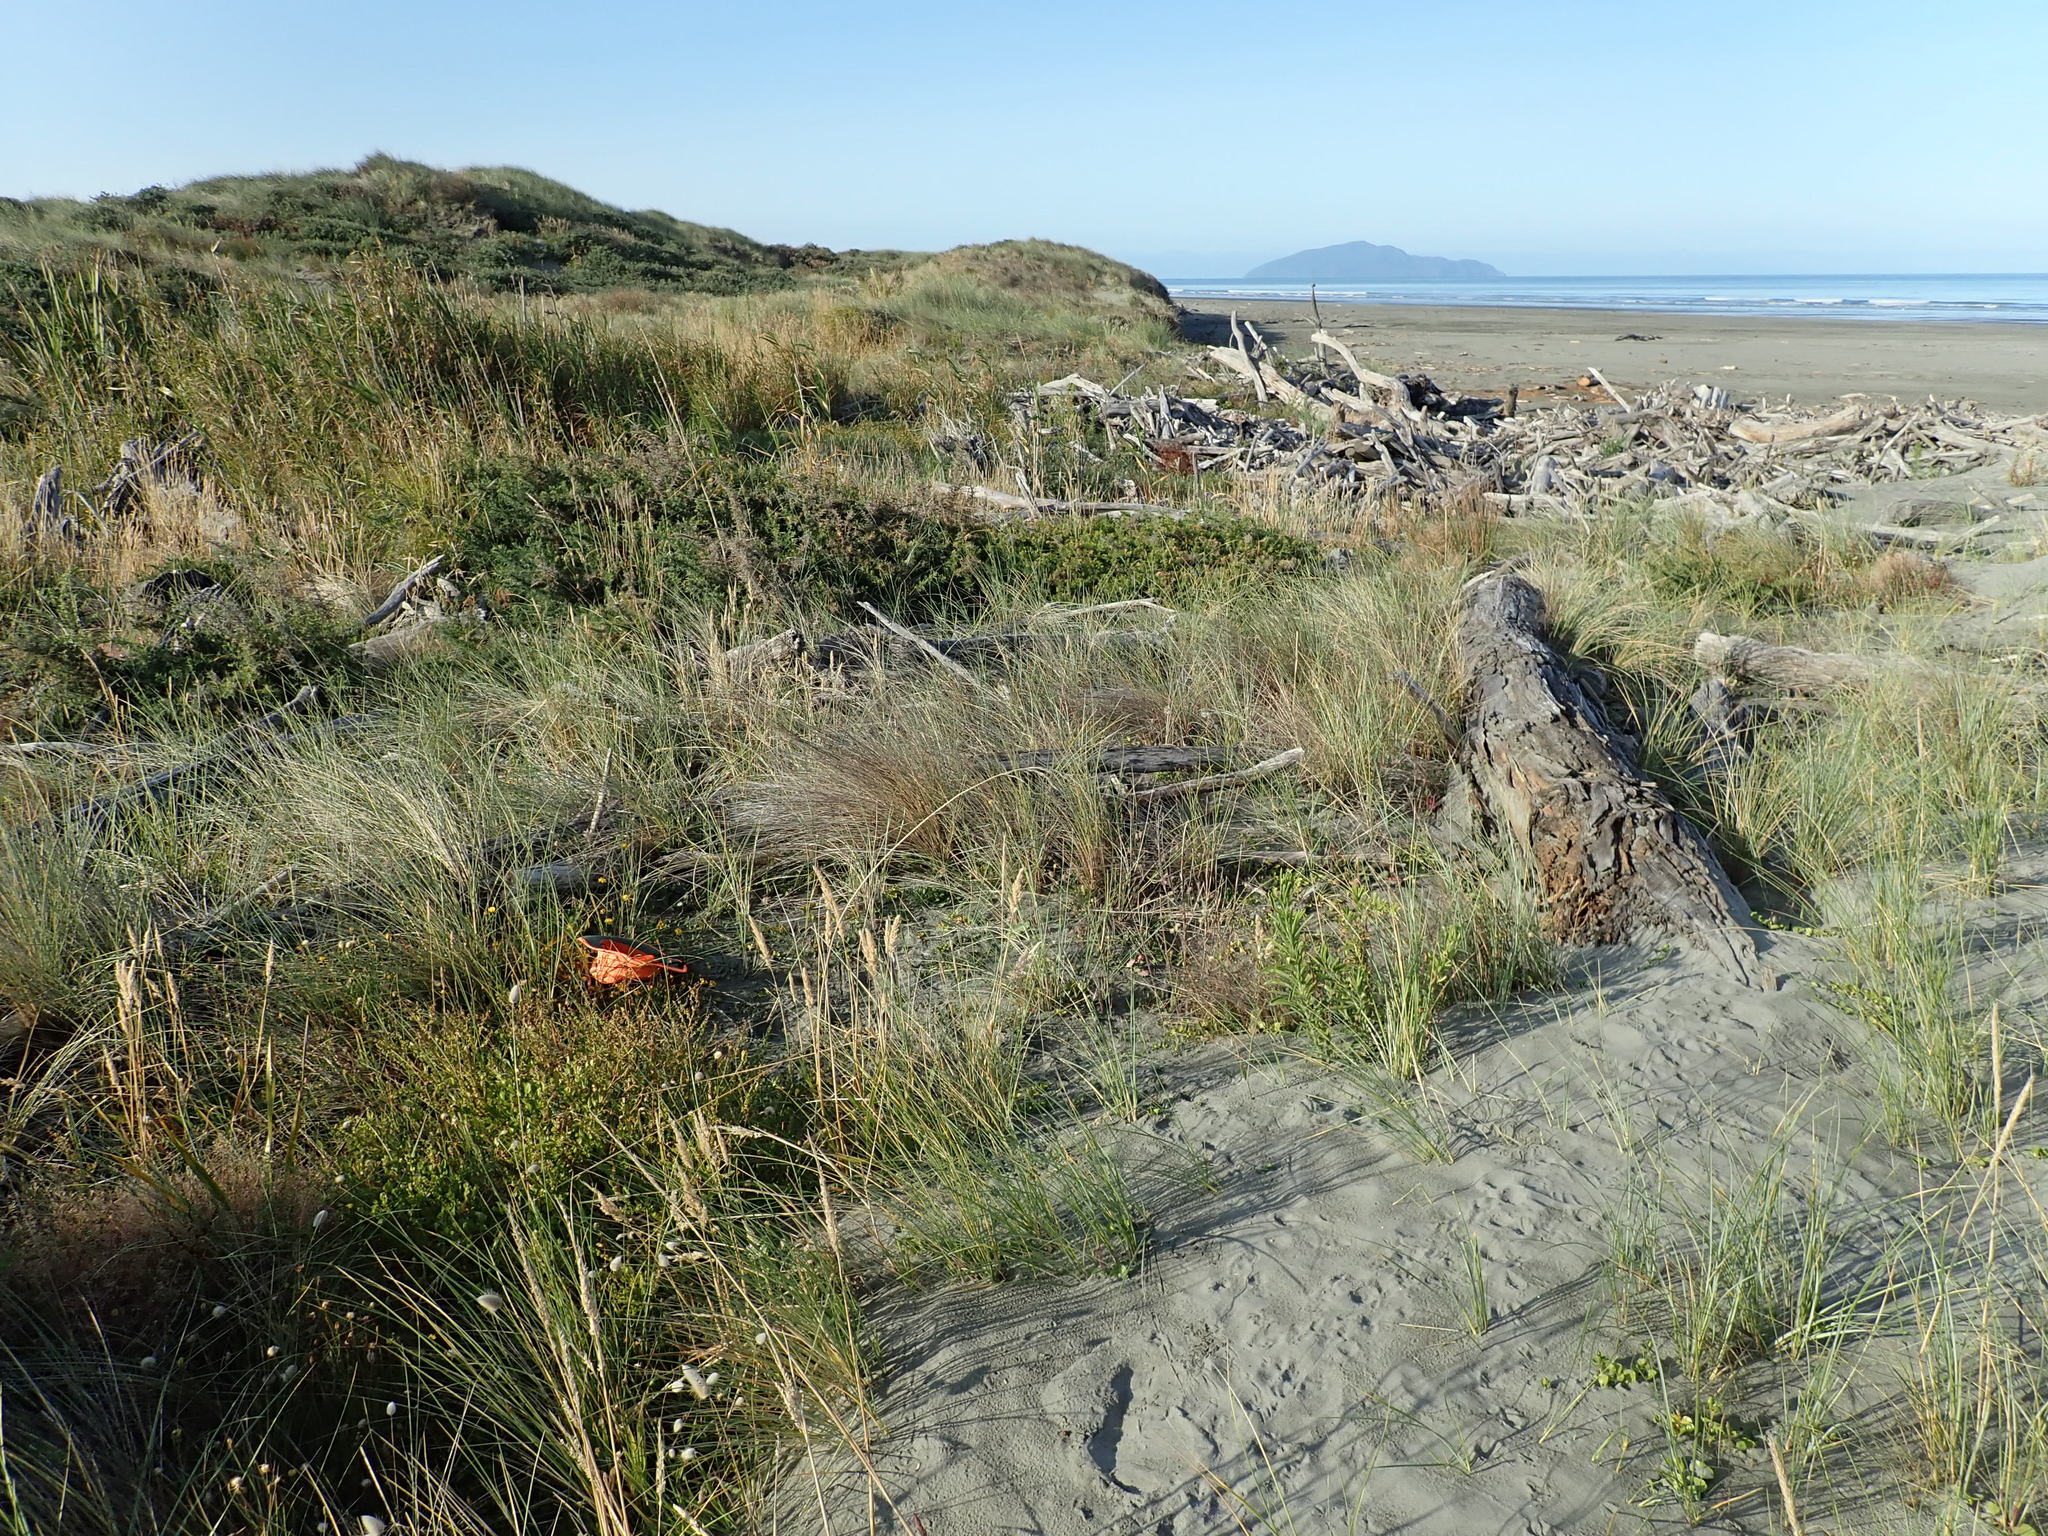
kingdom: Plantae
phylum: Tracheophyta
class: Magnoliopsida
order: Fabales
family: Fabaceae
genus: Lotus
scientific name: Lotus pedunculatus
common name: Greater birdsfoot-trefoil
